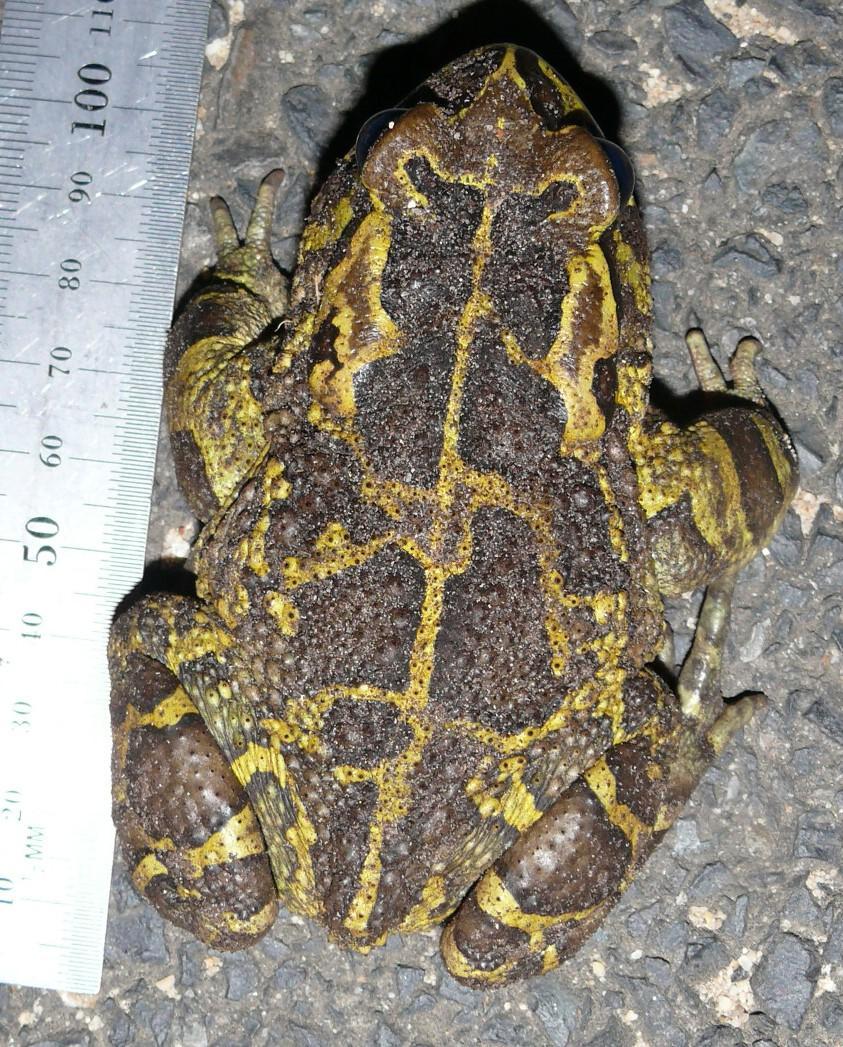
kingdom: Animalia
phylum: Chordata
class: Amphibia
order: Anura
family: Bufonidae
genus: Sclerophrys
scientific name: Sclerophrys pantherina
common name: Panther toad
